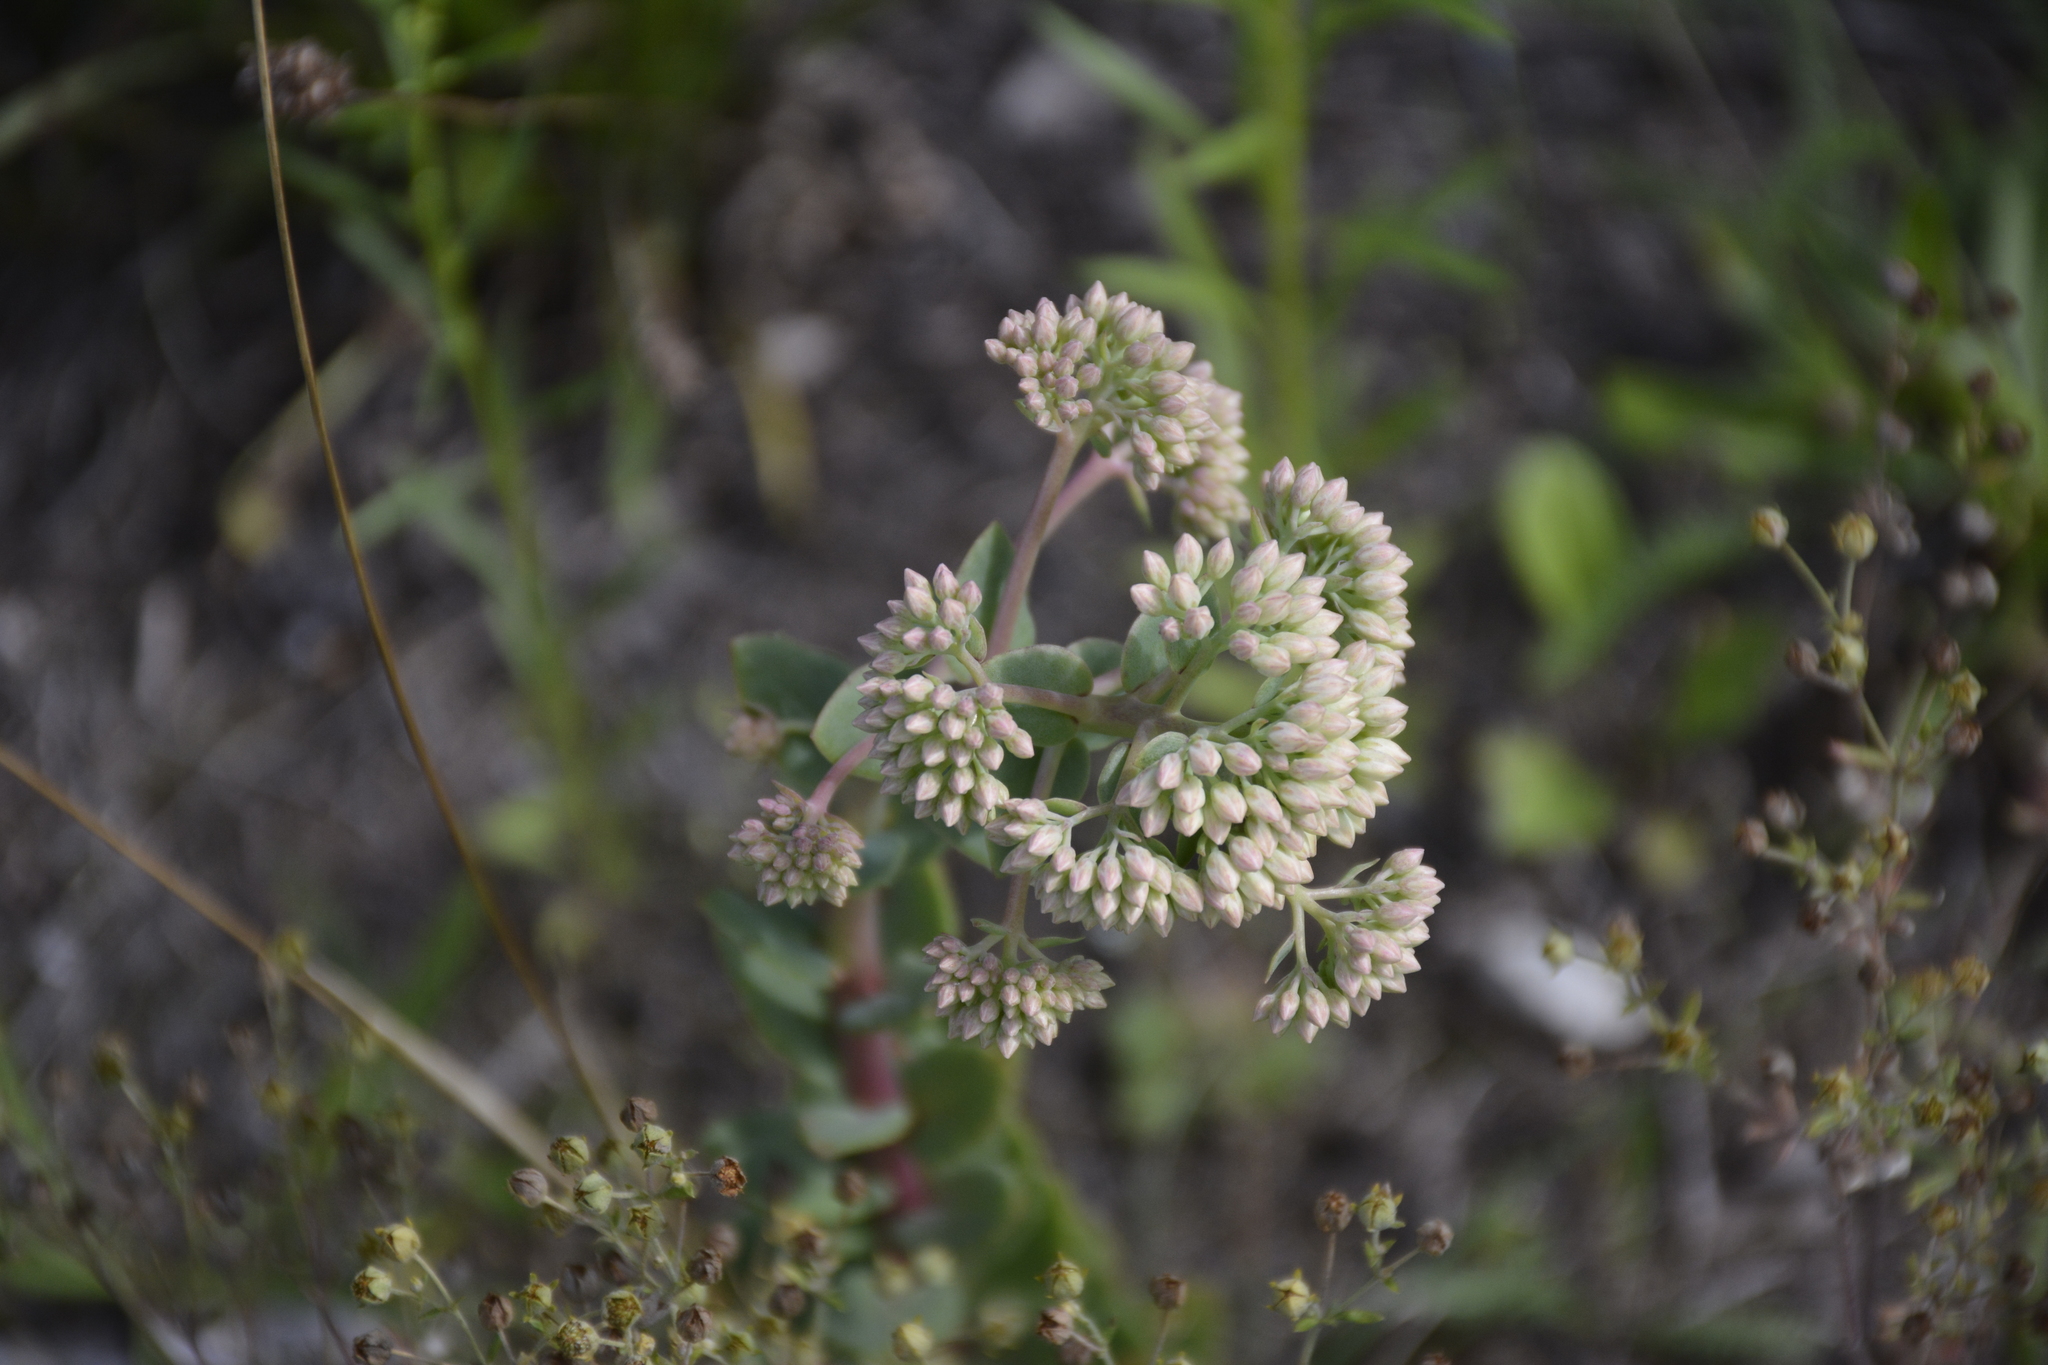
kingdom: Plantae
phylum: Tracheophyta
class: Magnoliopsida
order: Saxifragales
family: Crassulaceae
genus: Hylotelephium
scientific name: Hylotelephium maximum
